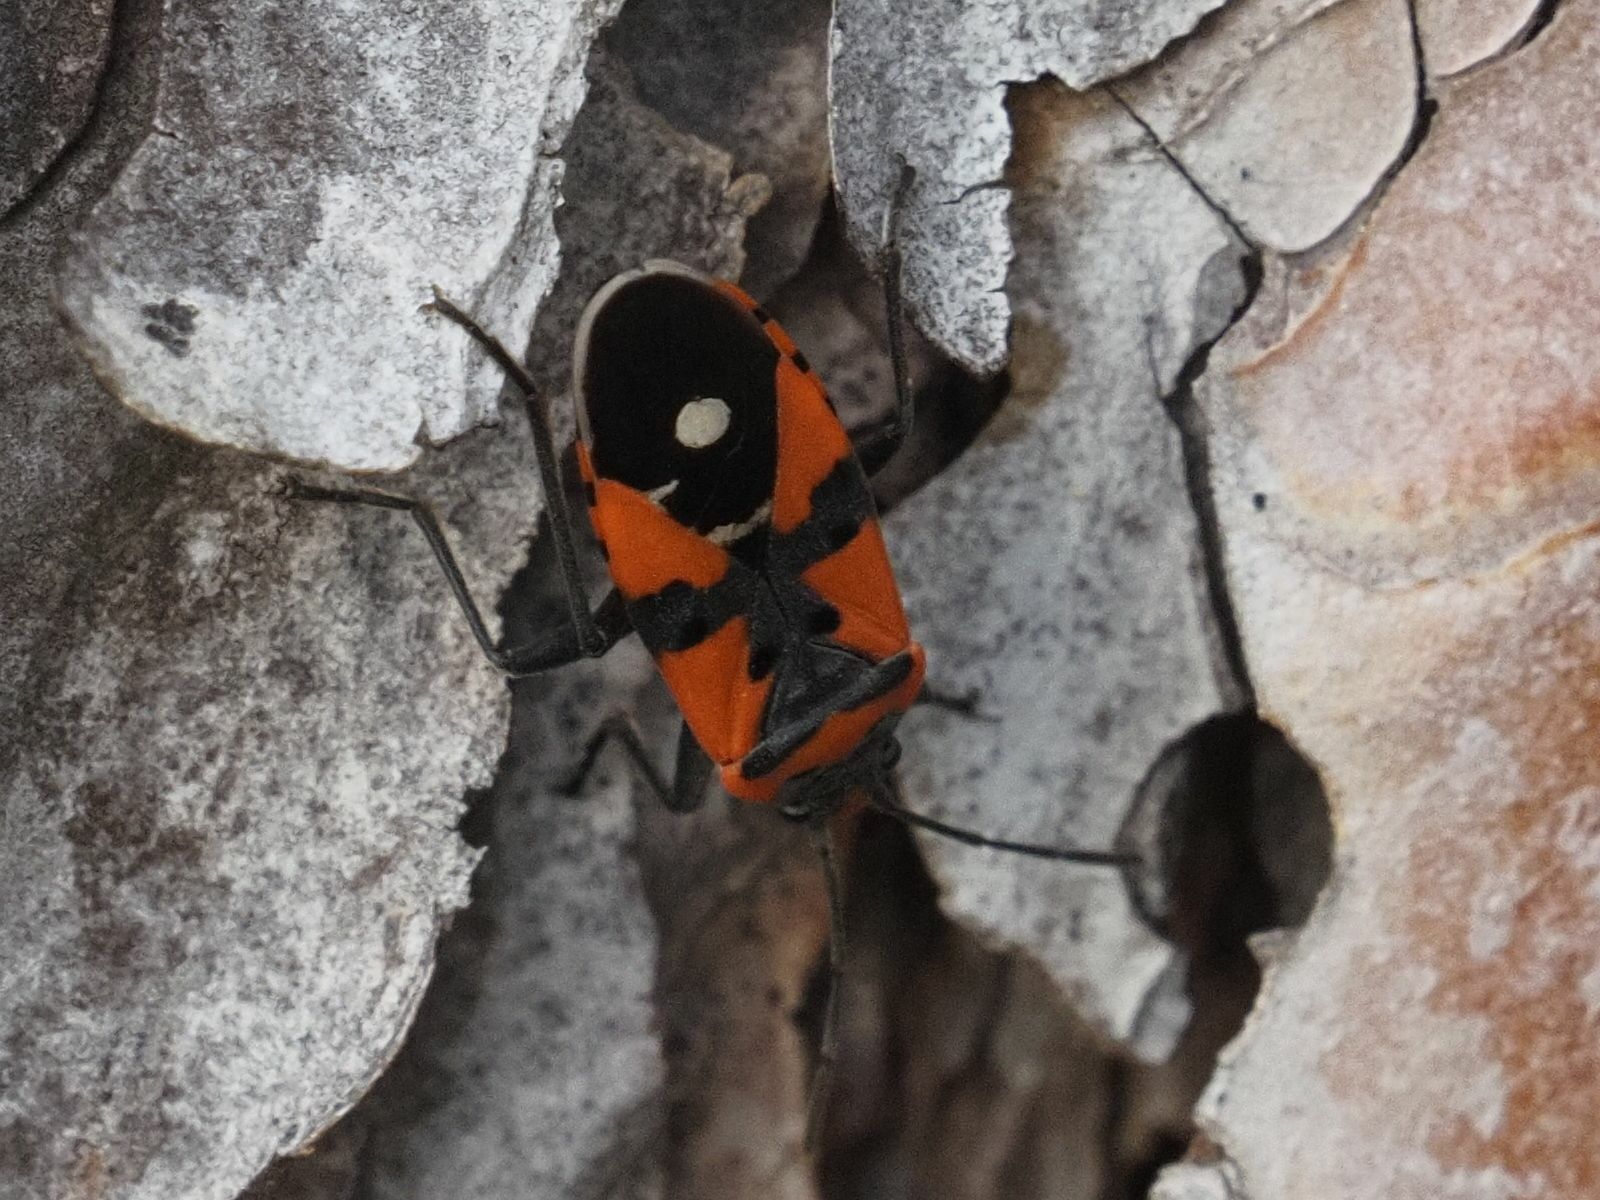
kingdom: Animalia
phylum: Arthropoda
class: Insecta
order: Hemiptera
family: Lygaeidae
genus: Lygaeus
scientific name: Lygaeus equestris
